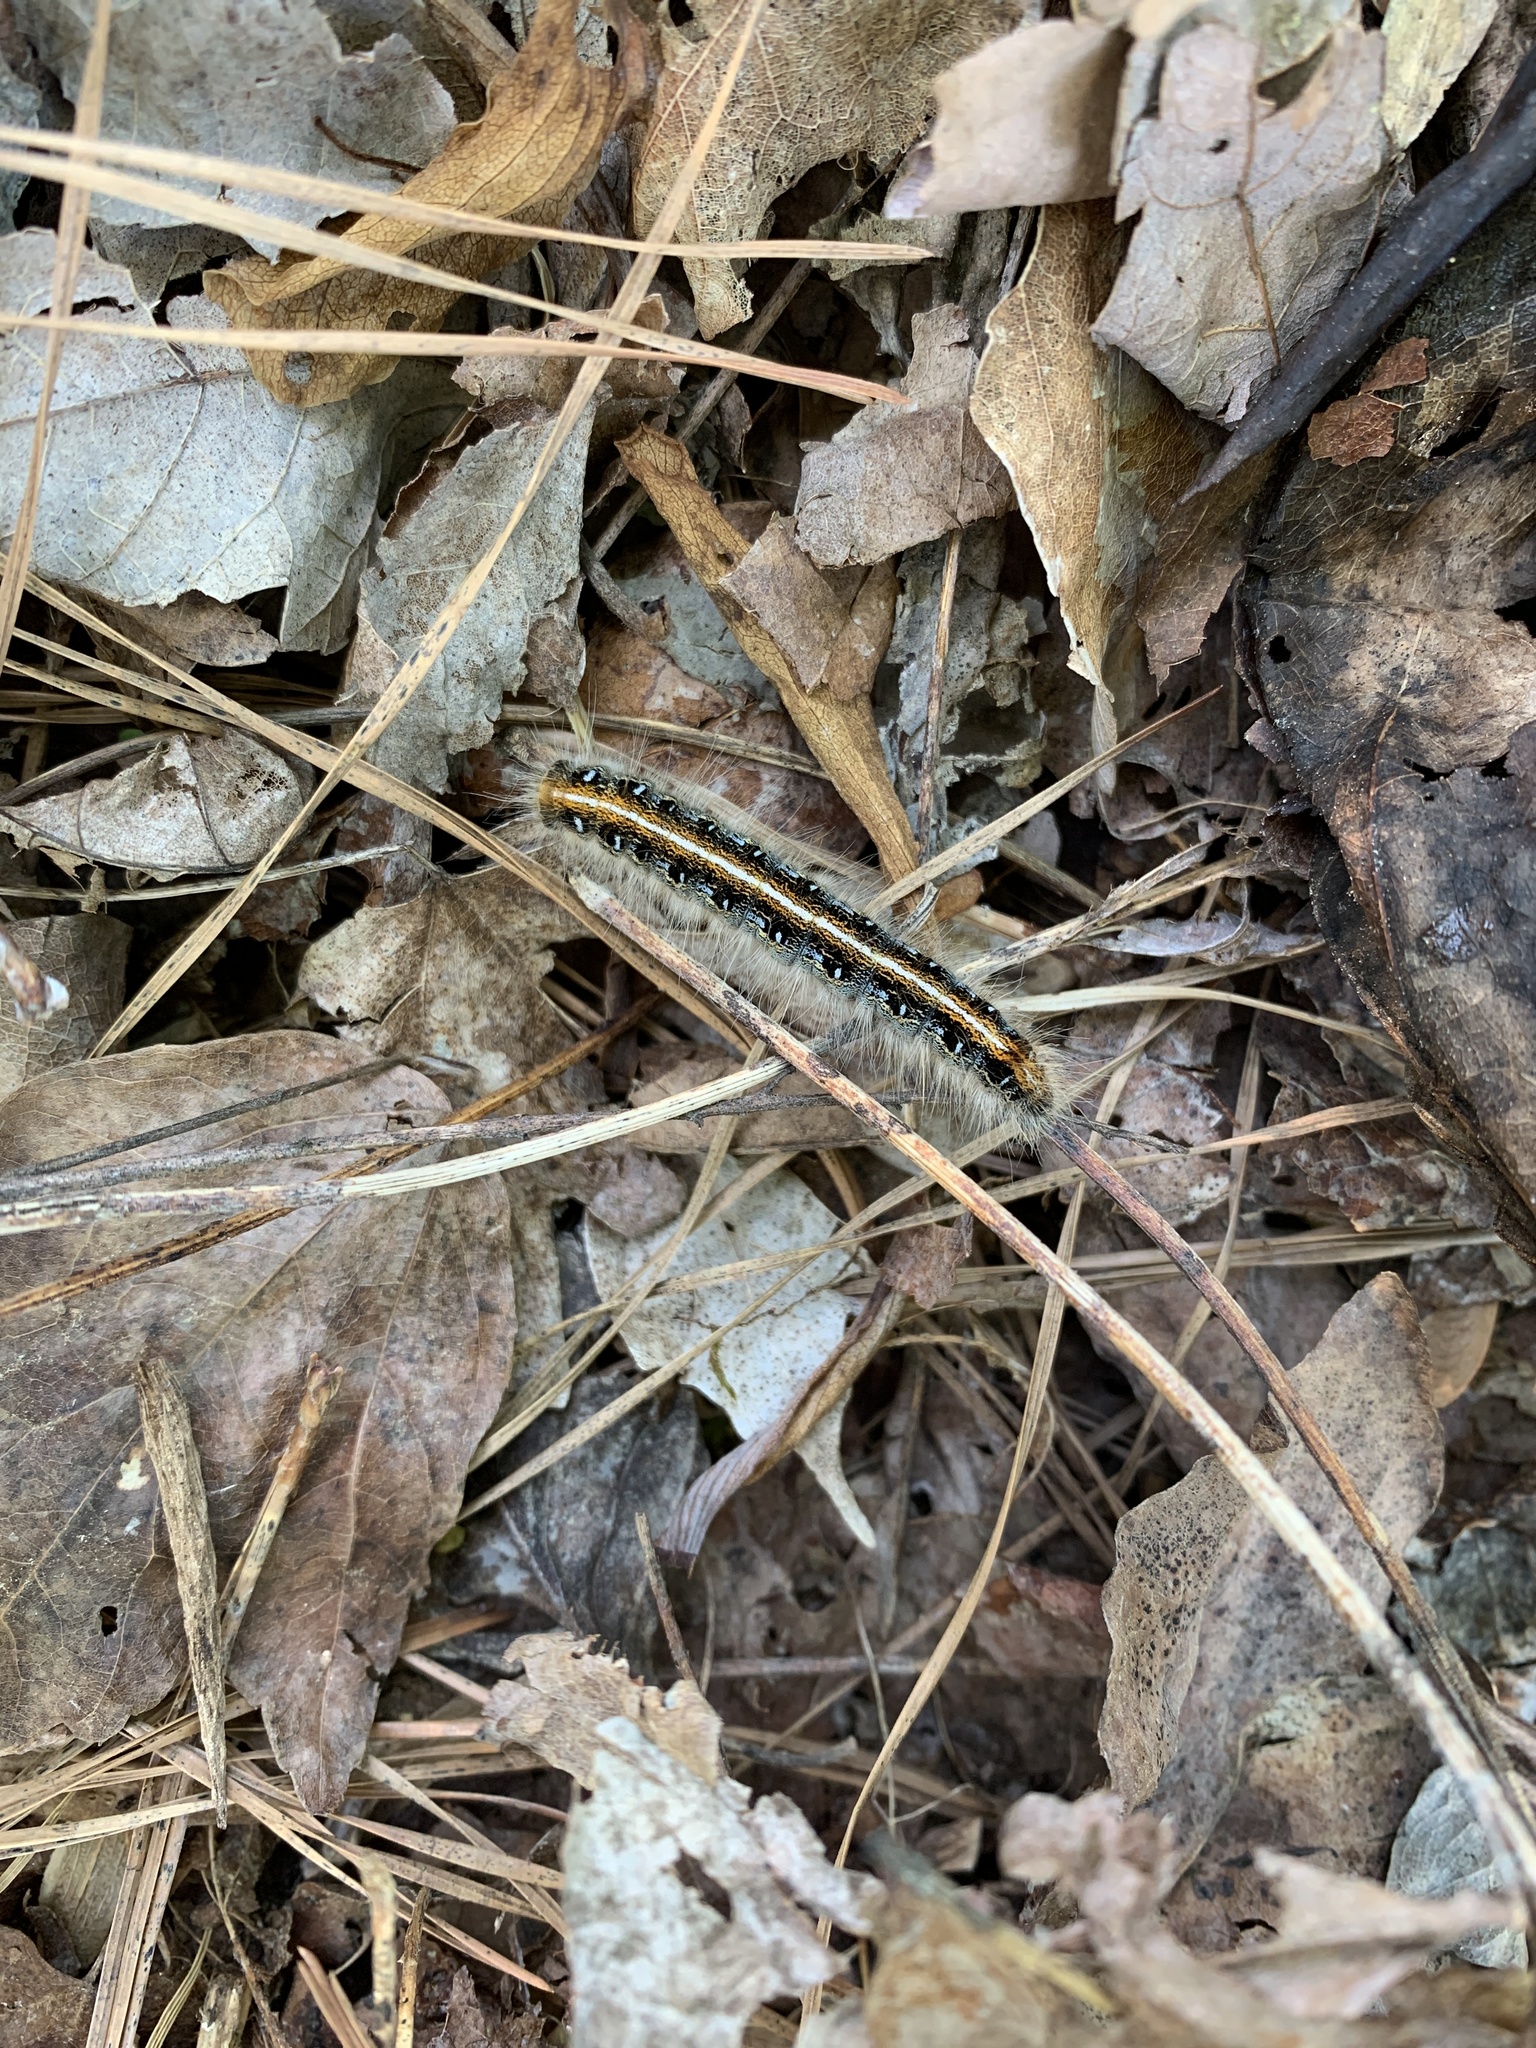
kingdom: Animalia
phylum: Arthropoda
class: Insecta
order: Lepidoptera
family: Lasiocampidae
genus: Malacosoma
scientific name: Malacosoma americana
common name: Eastern tent caterpillar moth
